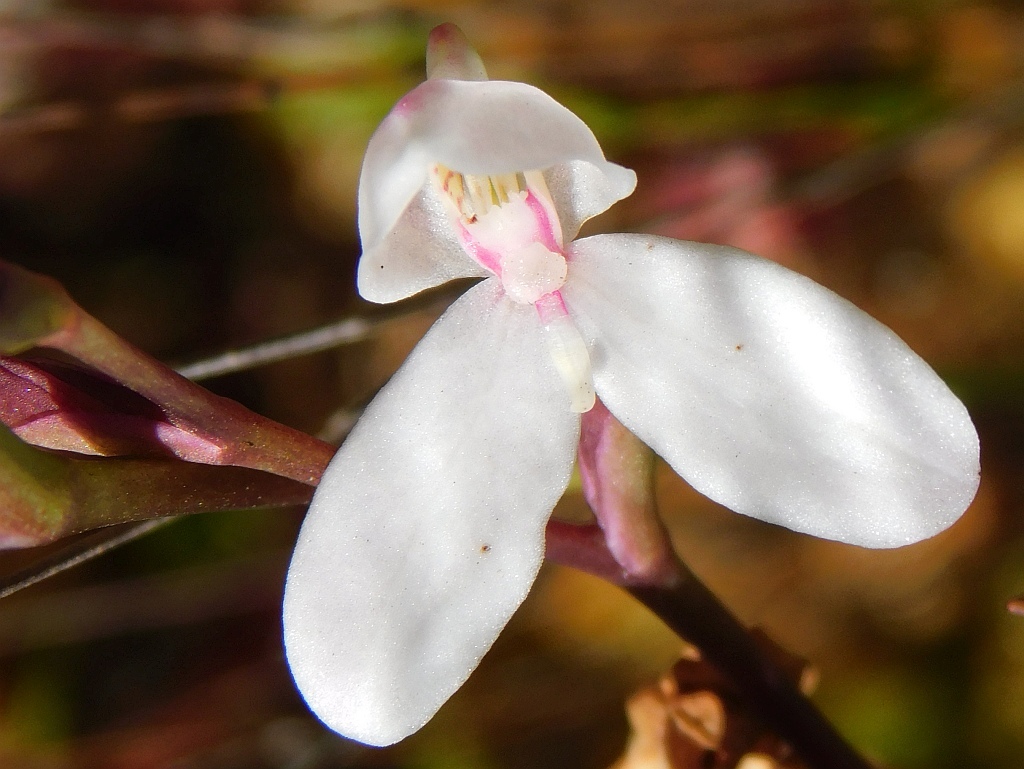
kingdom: Plantae
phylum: Tracheophyta
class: Liliopsida
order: Asparagales
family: Orchidaceae
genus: Disa
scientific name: Disa tripetaloides
